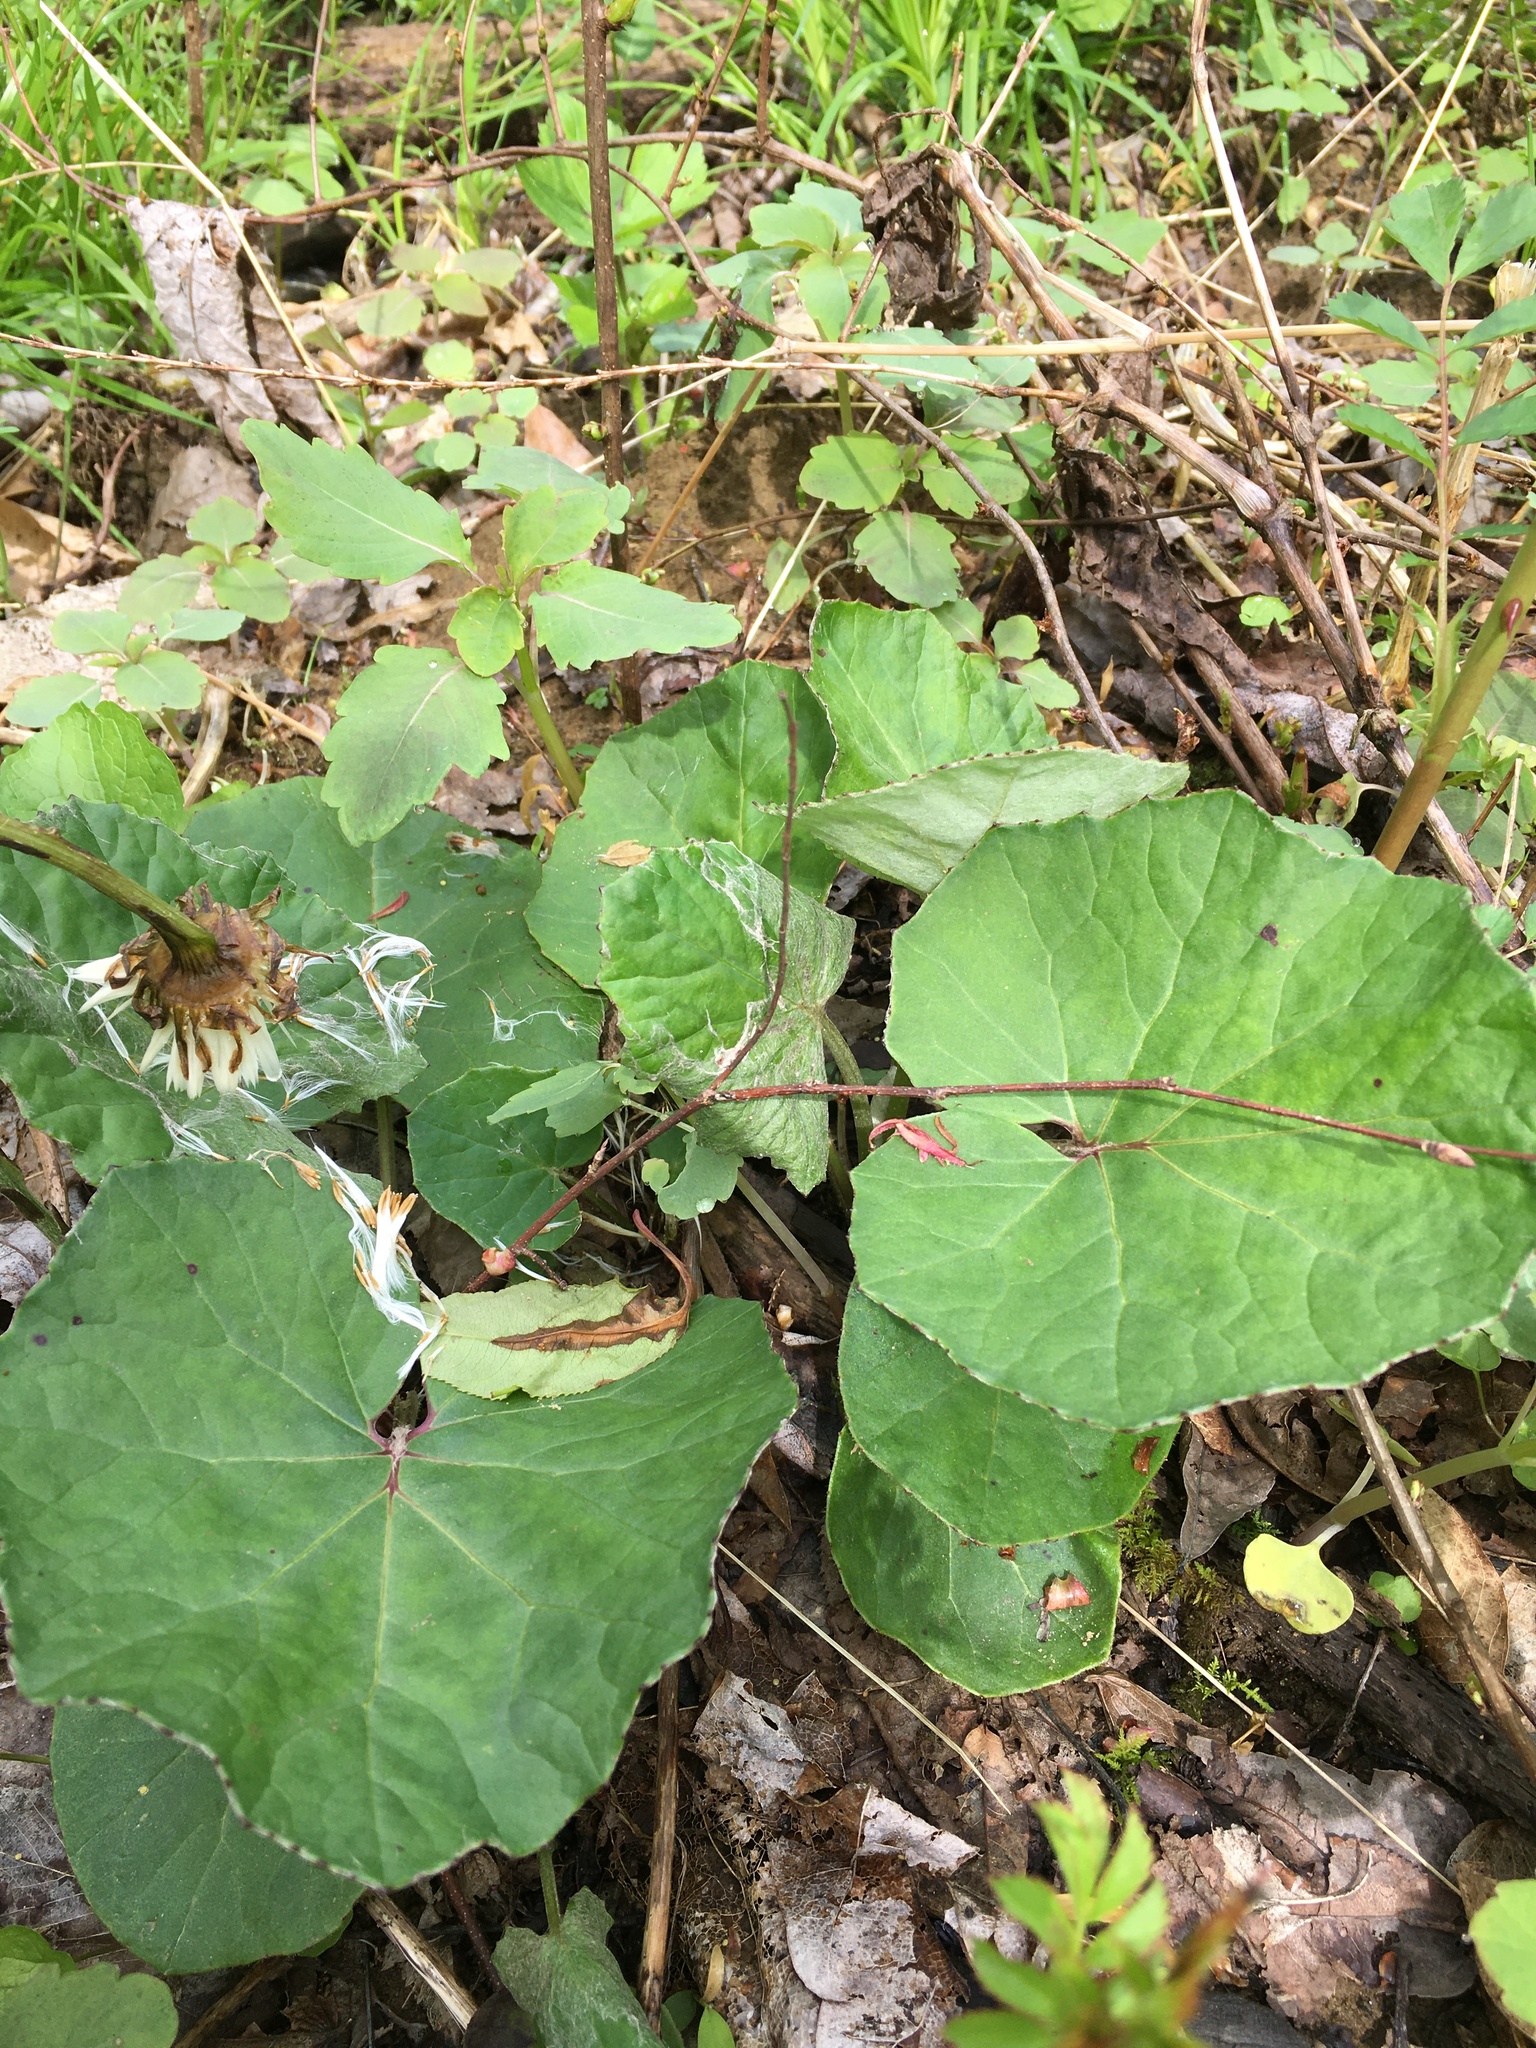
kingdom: Plantae
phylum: Tracheophyta
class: Magnoliopsida
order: Asterales
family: Asteraceae
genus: Tussilago
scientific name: Tussilago farfara
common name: Coltsfoot
